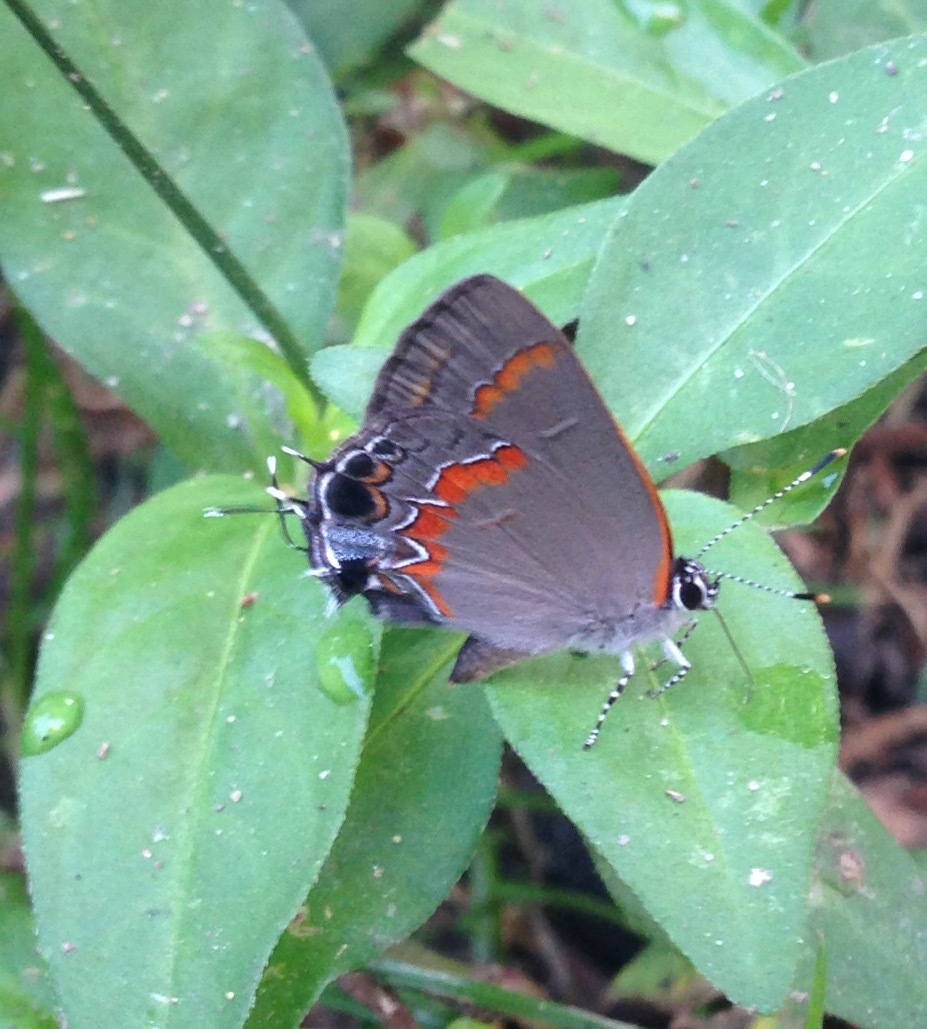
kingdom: Animalia
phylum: Arthropoda
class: Insecta
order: Lepidoptera
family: Lycaenidae
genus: Calycopis
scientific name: Calycopis cecrops
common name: Red-banded hairstreak
